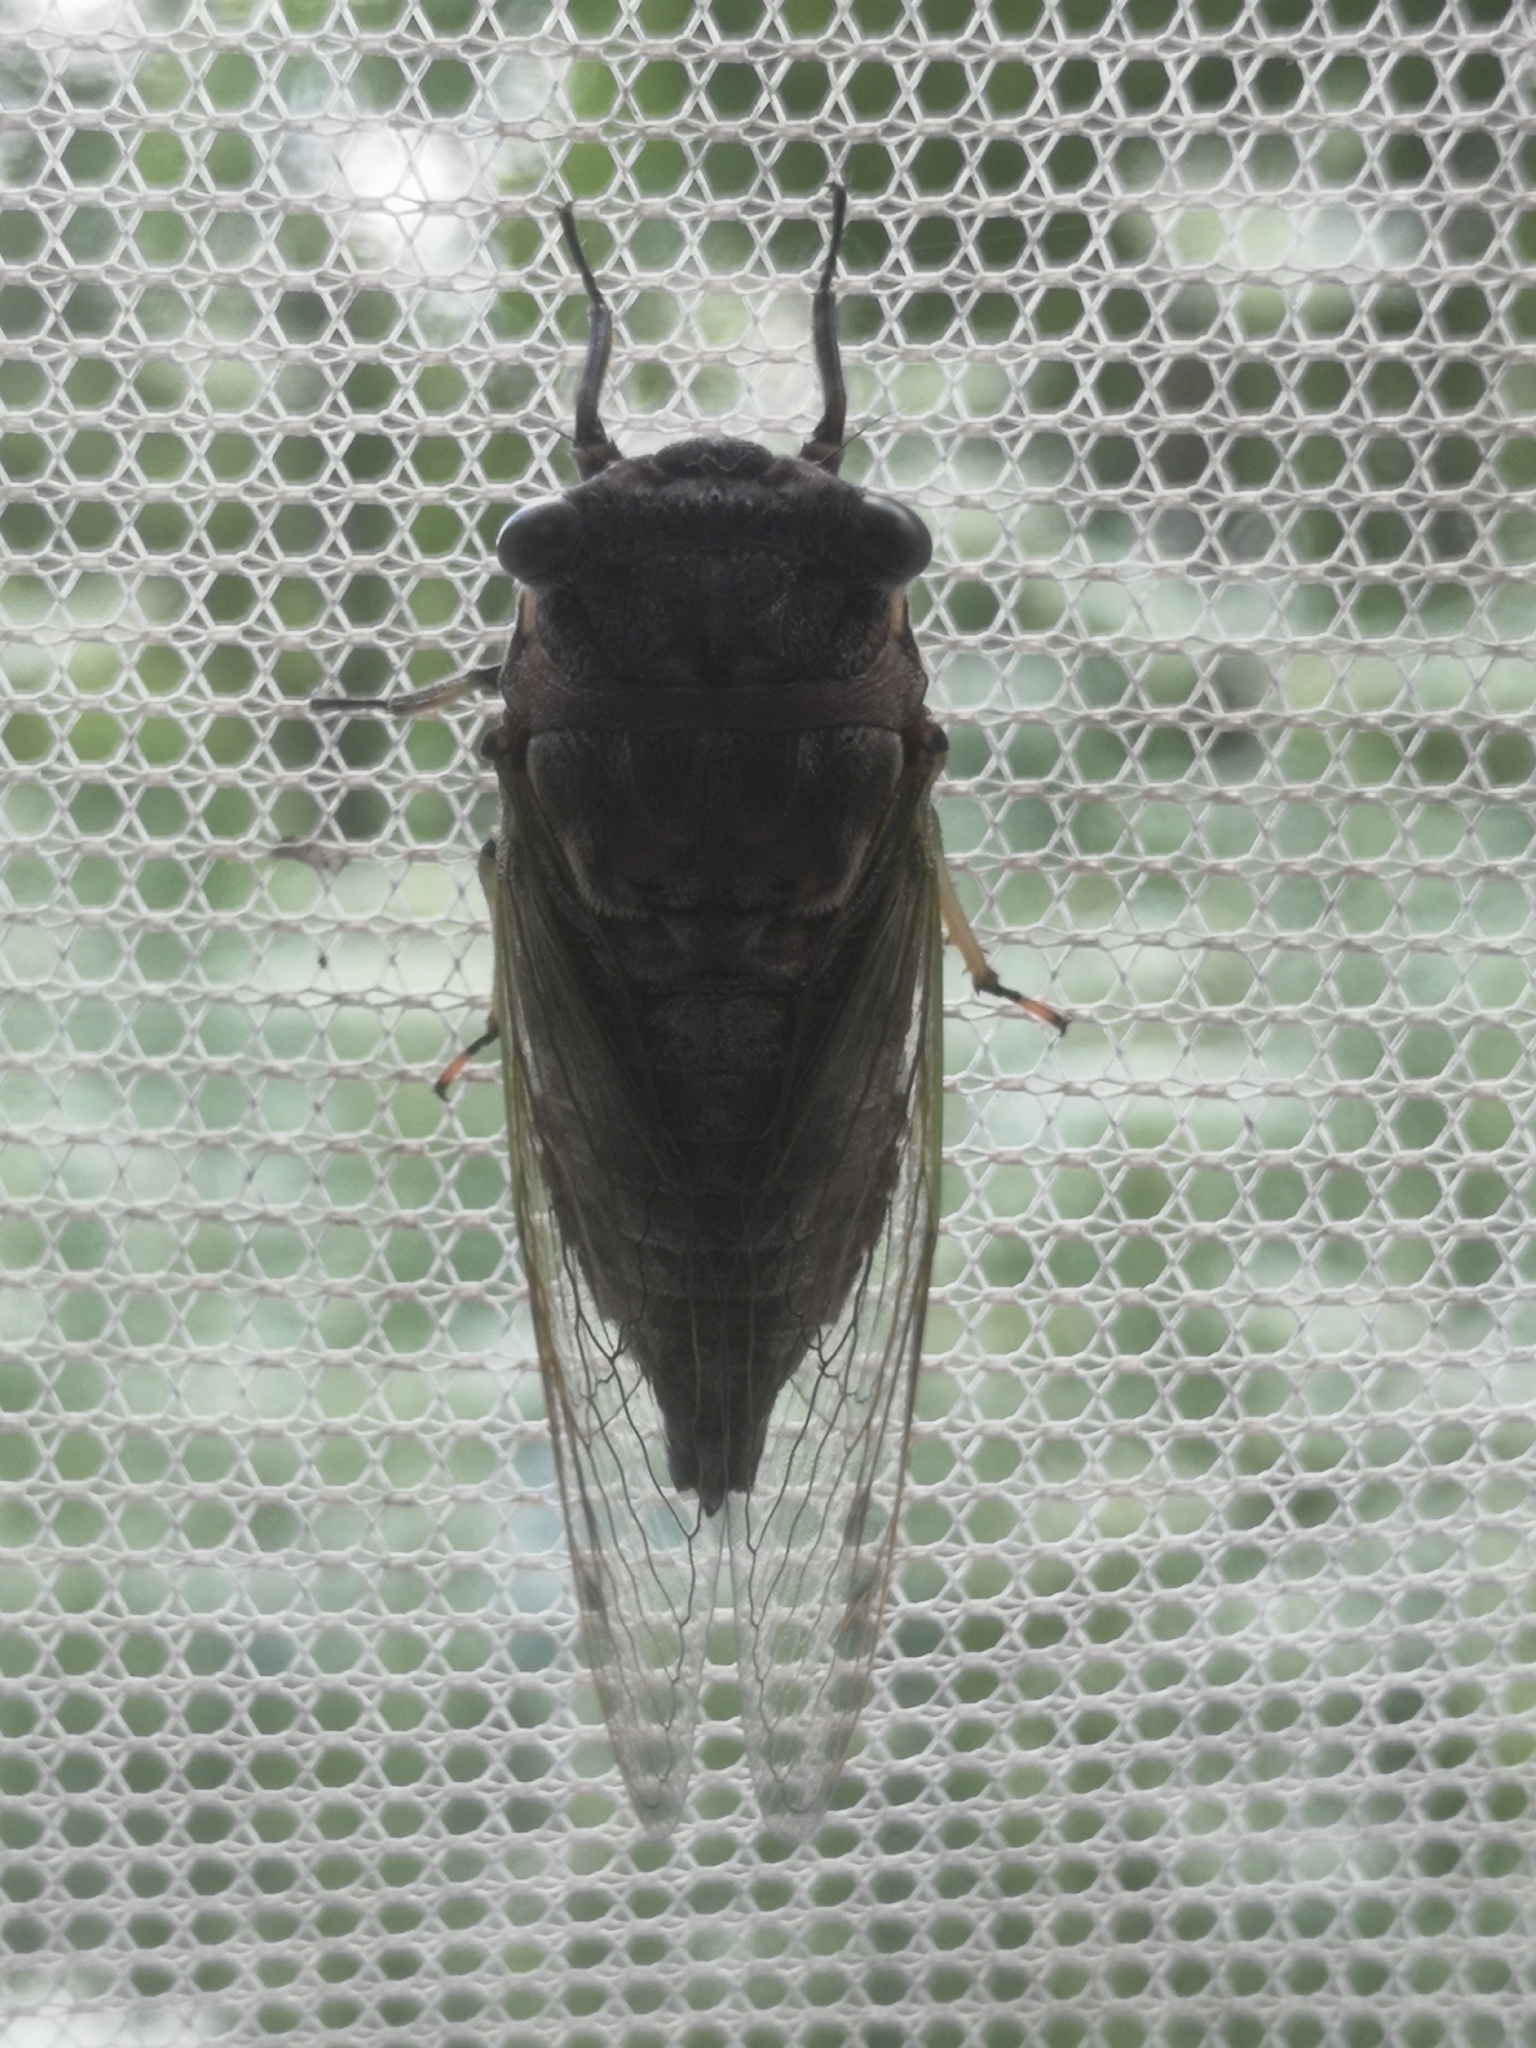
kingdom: Animalia
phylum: Arthropoda
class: Insecta
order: Hemiptera
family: Cicadidae
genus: Neotibicen
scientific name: Neotibicen canicularis
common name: God-day cicada
